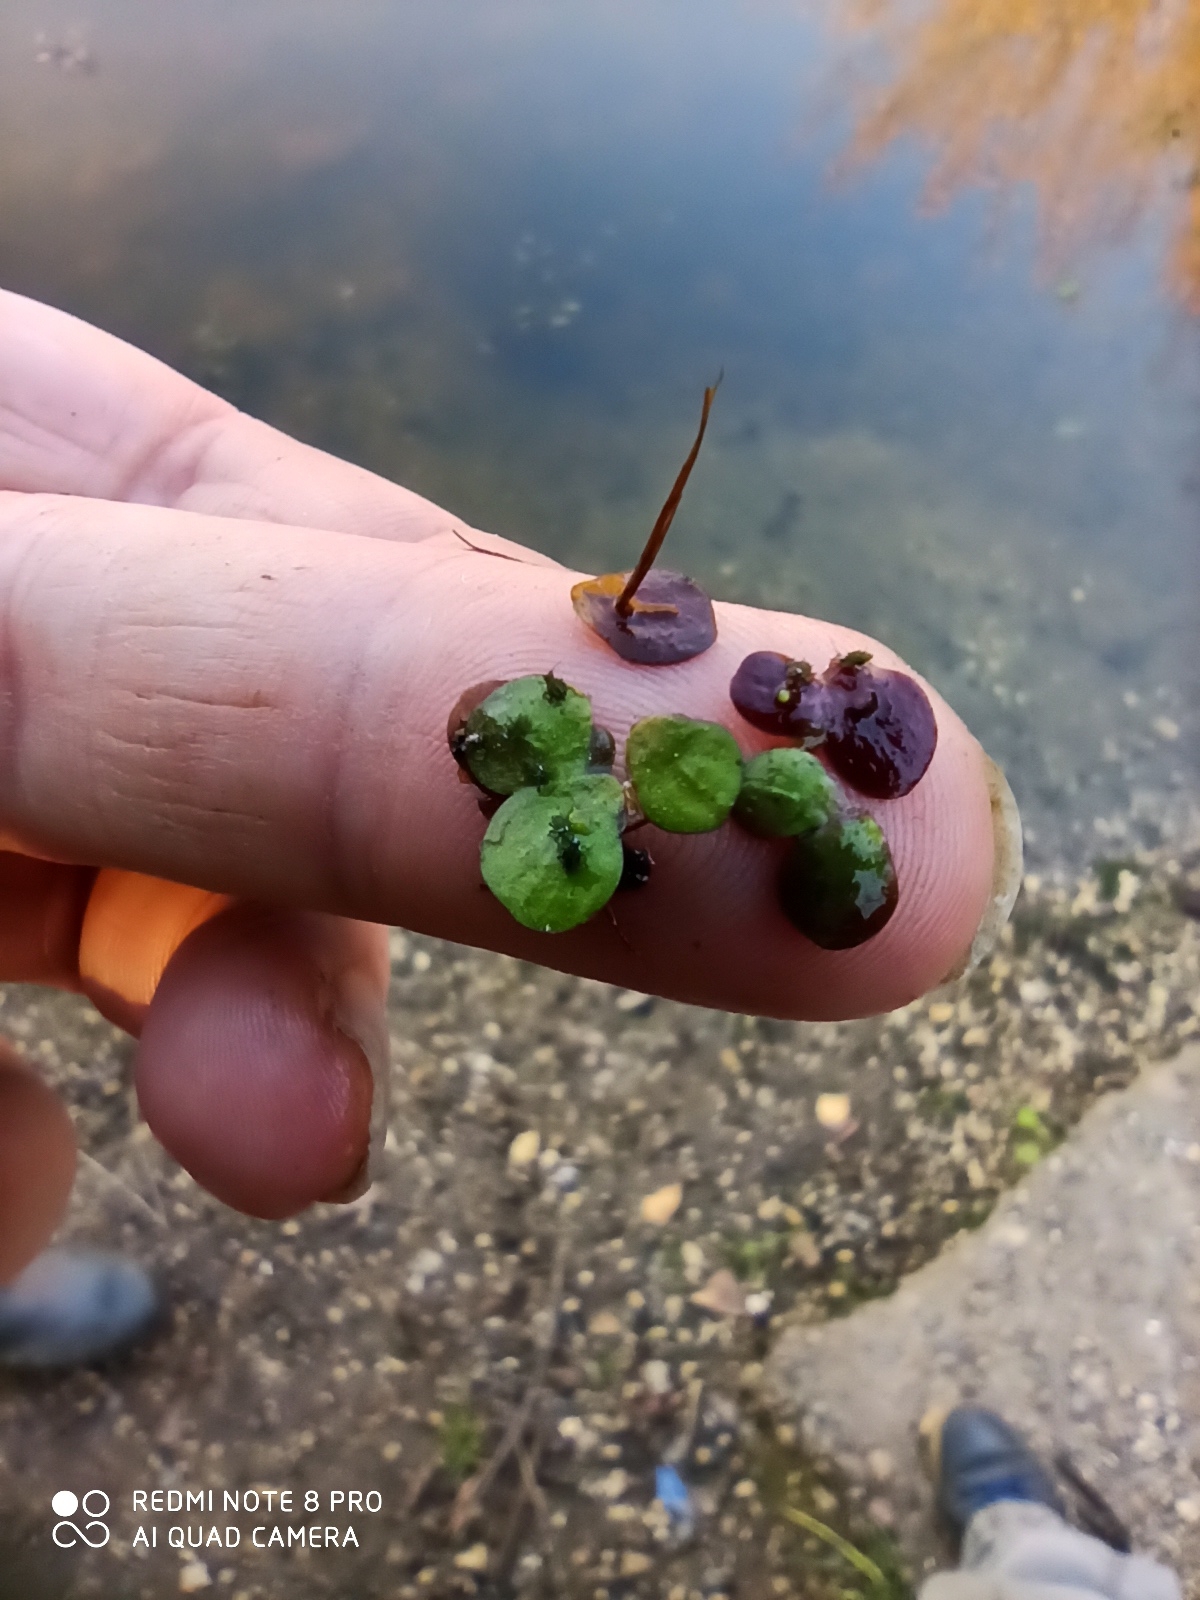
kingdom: Plantae
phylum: Tracheophyta
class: Liliopsida
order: Alismatales
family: Araceae
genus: Spirodela
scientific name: Spirodela polyrhiza
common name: Great duckweed
